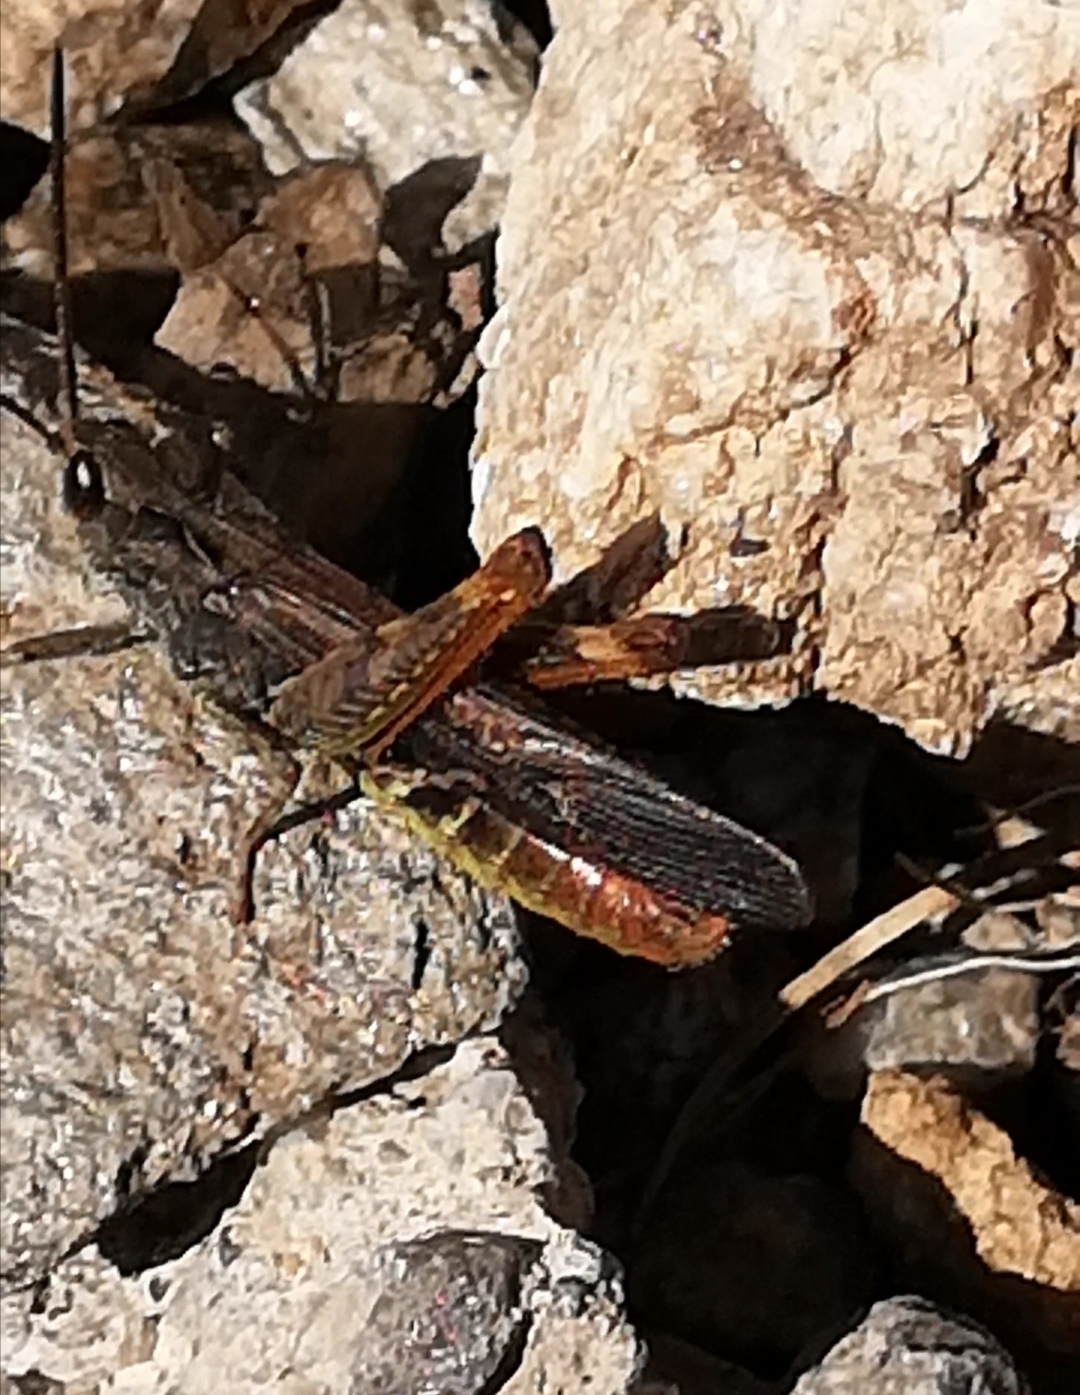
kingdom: Animalia
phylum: Arthropoda
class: Insecta
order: Orthoptera
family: Acrididae
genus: Chorthippus
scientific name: Chorthippus brunneus
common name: Field grasshopper
